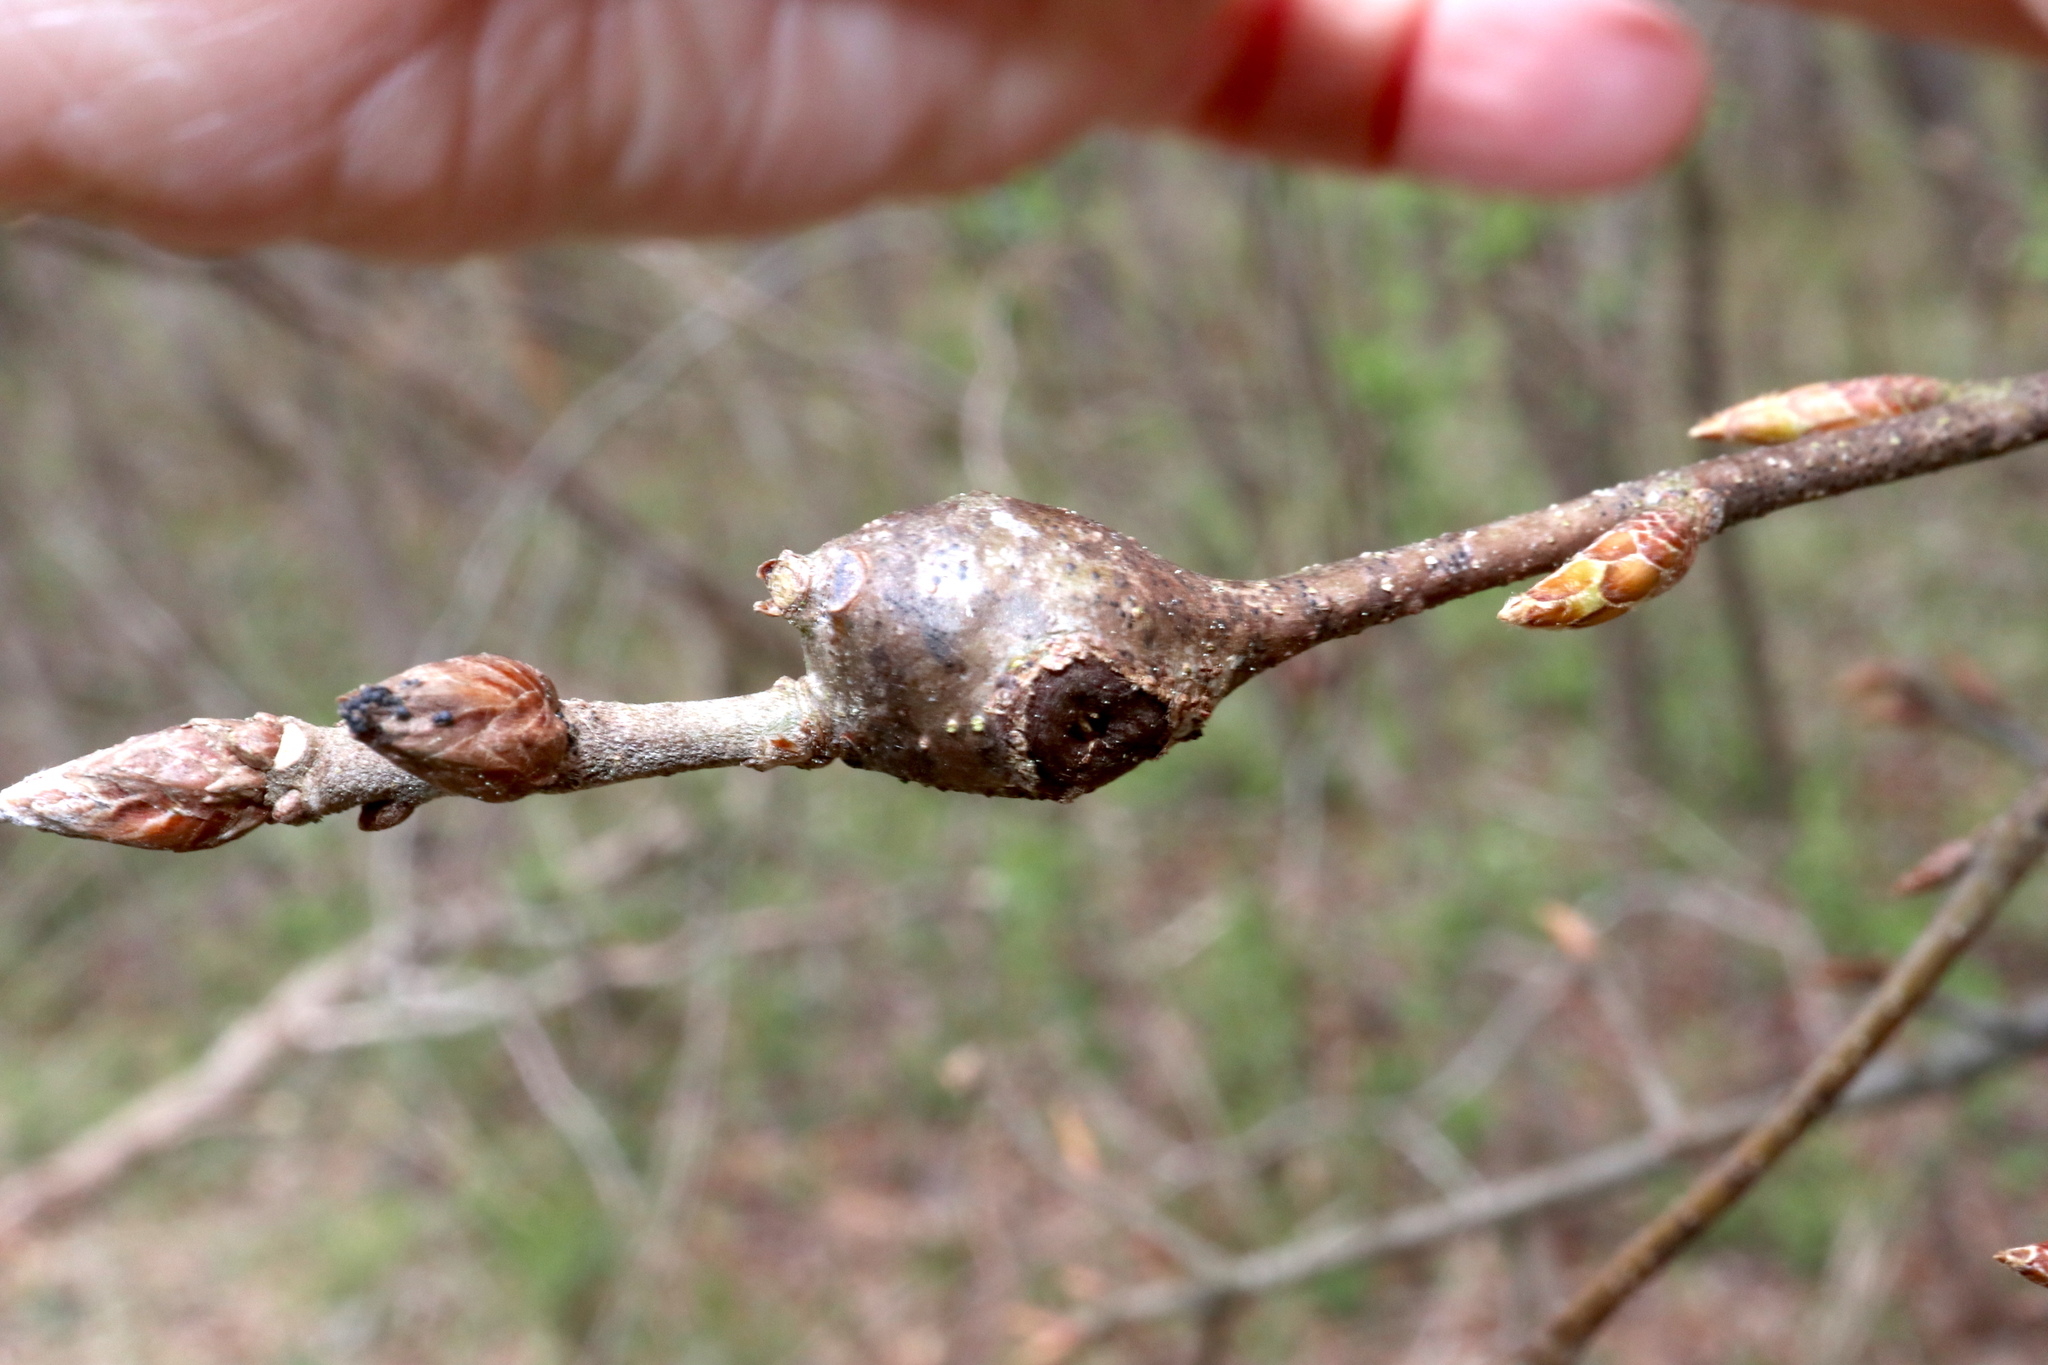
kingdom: Animalia
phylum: Arthropoda
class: Insecta
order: Hymenoptera
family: Cynipidae
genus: Zapatella
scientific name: Zapatella quercusphellos
